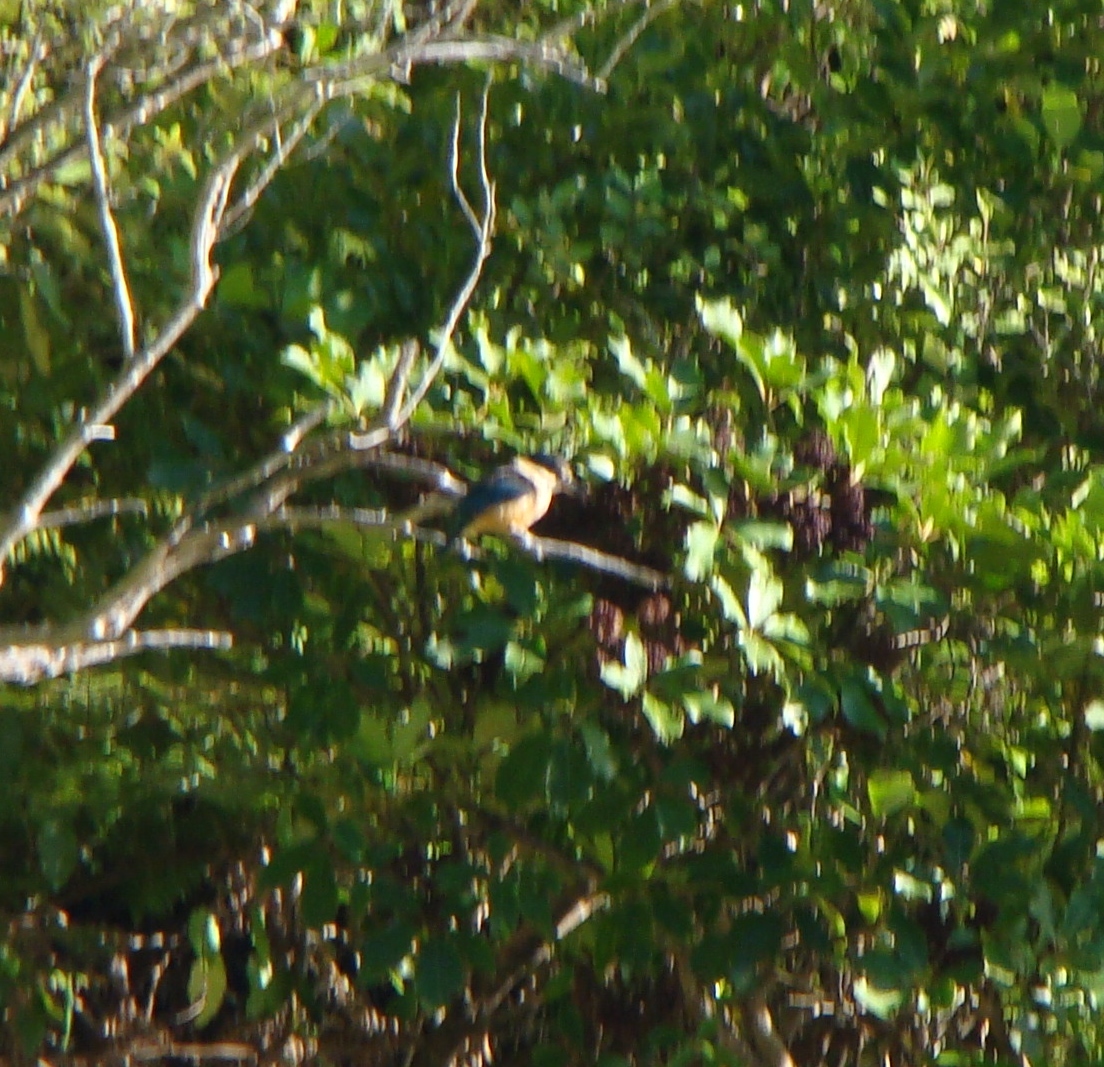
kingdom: Animalia
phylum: Chordata
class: Aves
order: Coraciiformes
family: Alcedinidae
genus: Todiramphus
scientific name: Todiramphus sanctus
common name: Sacred kingfisher
